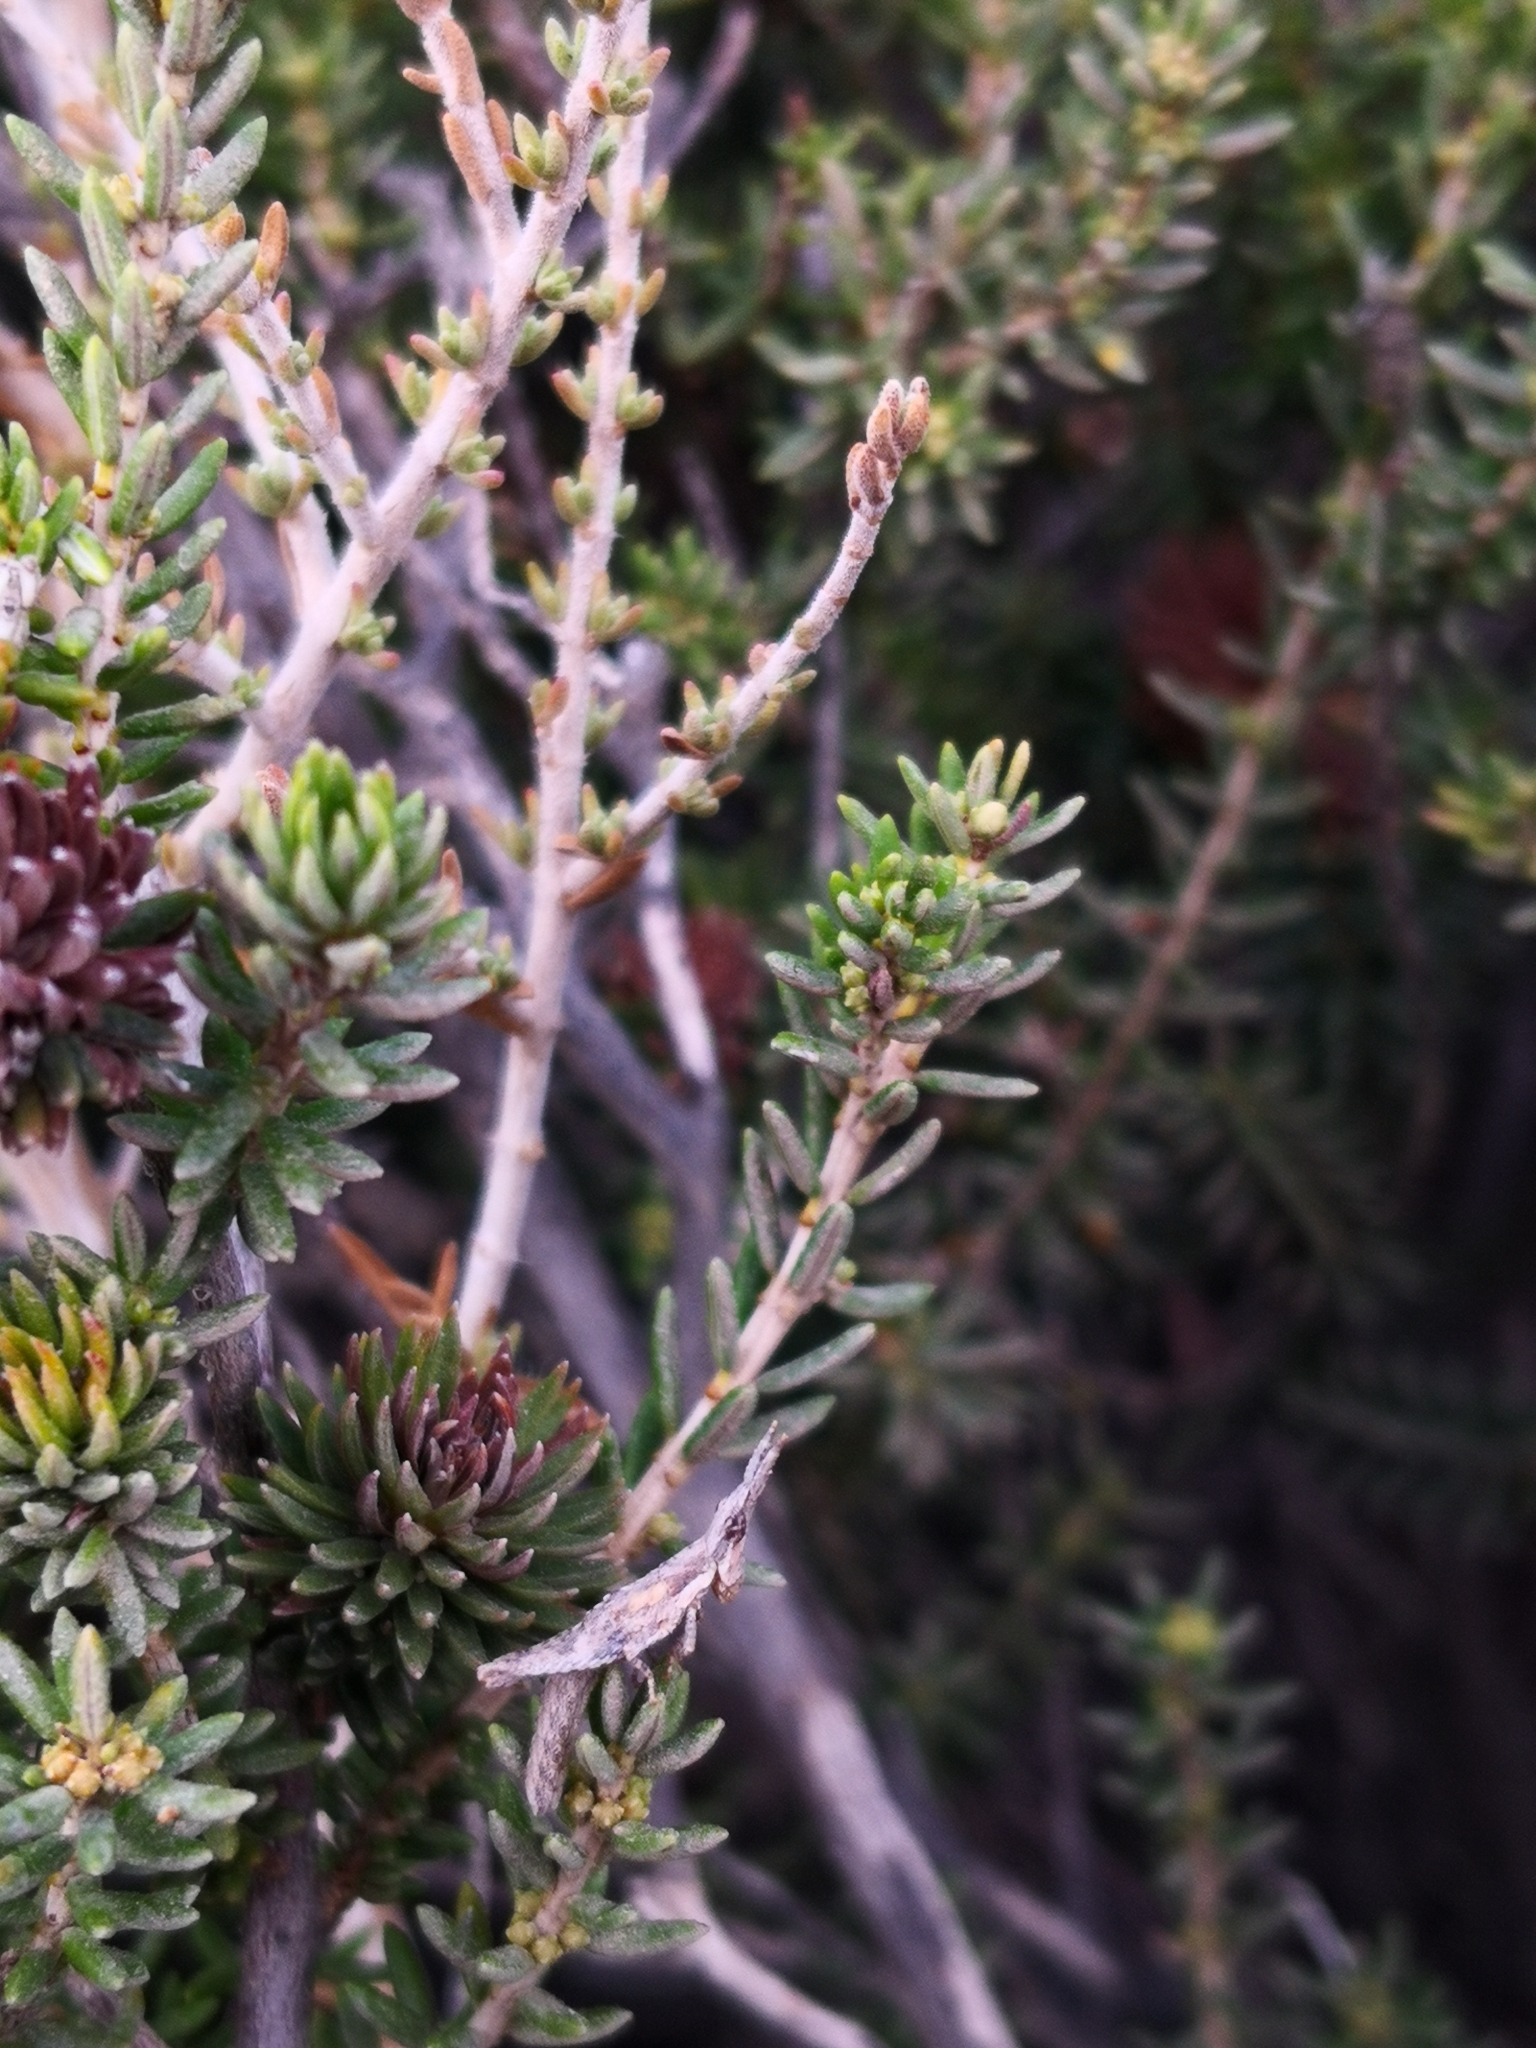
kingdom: Animalia
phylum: Arthropoda
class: Insecta
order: Orthoptera
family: Pyrgomorphidae
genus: Pyrgomorpha
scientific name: Pyrgomorpha conica
